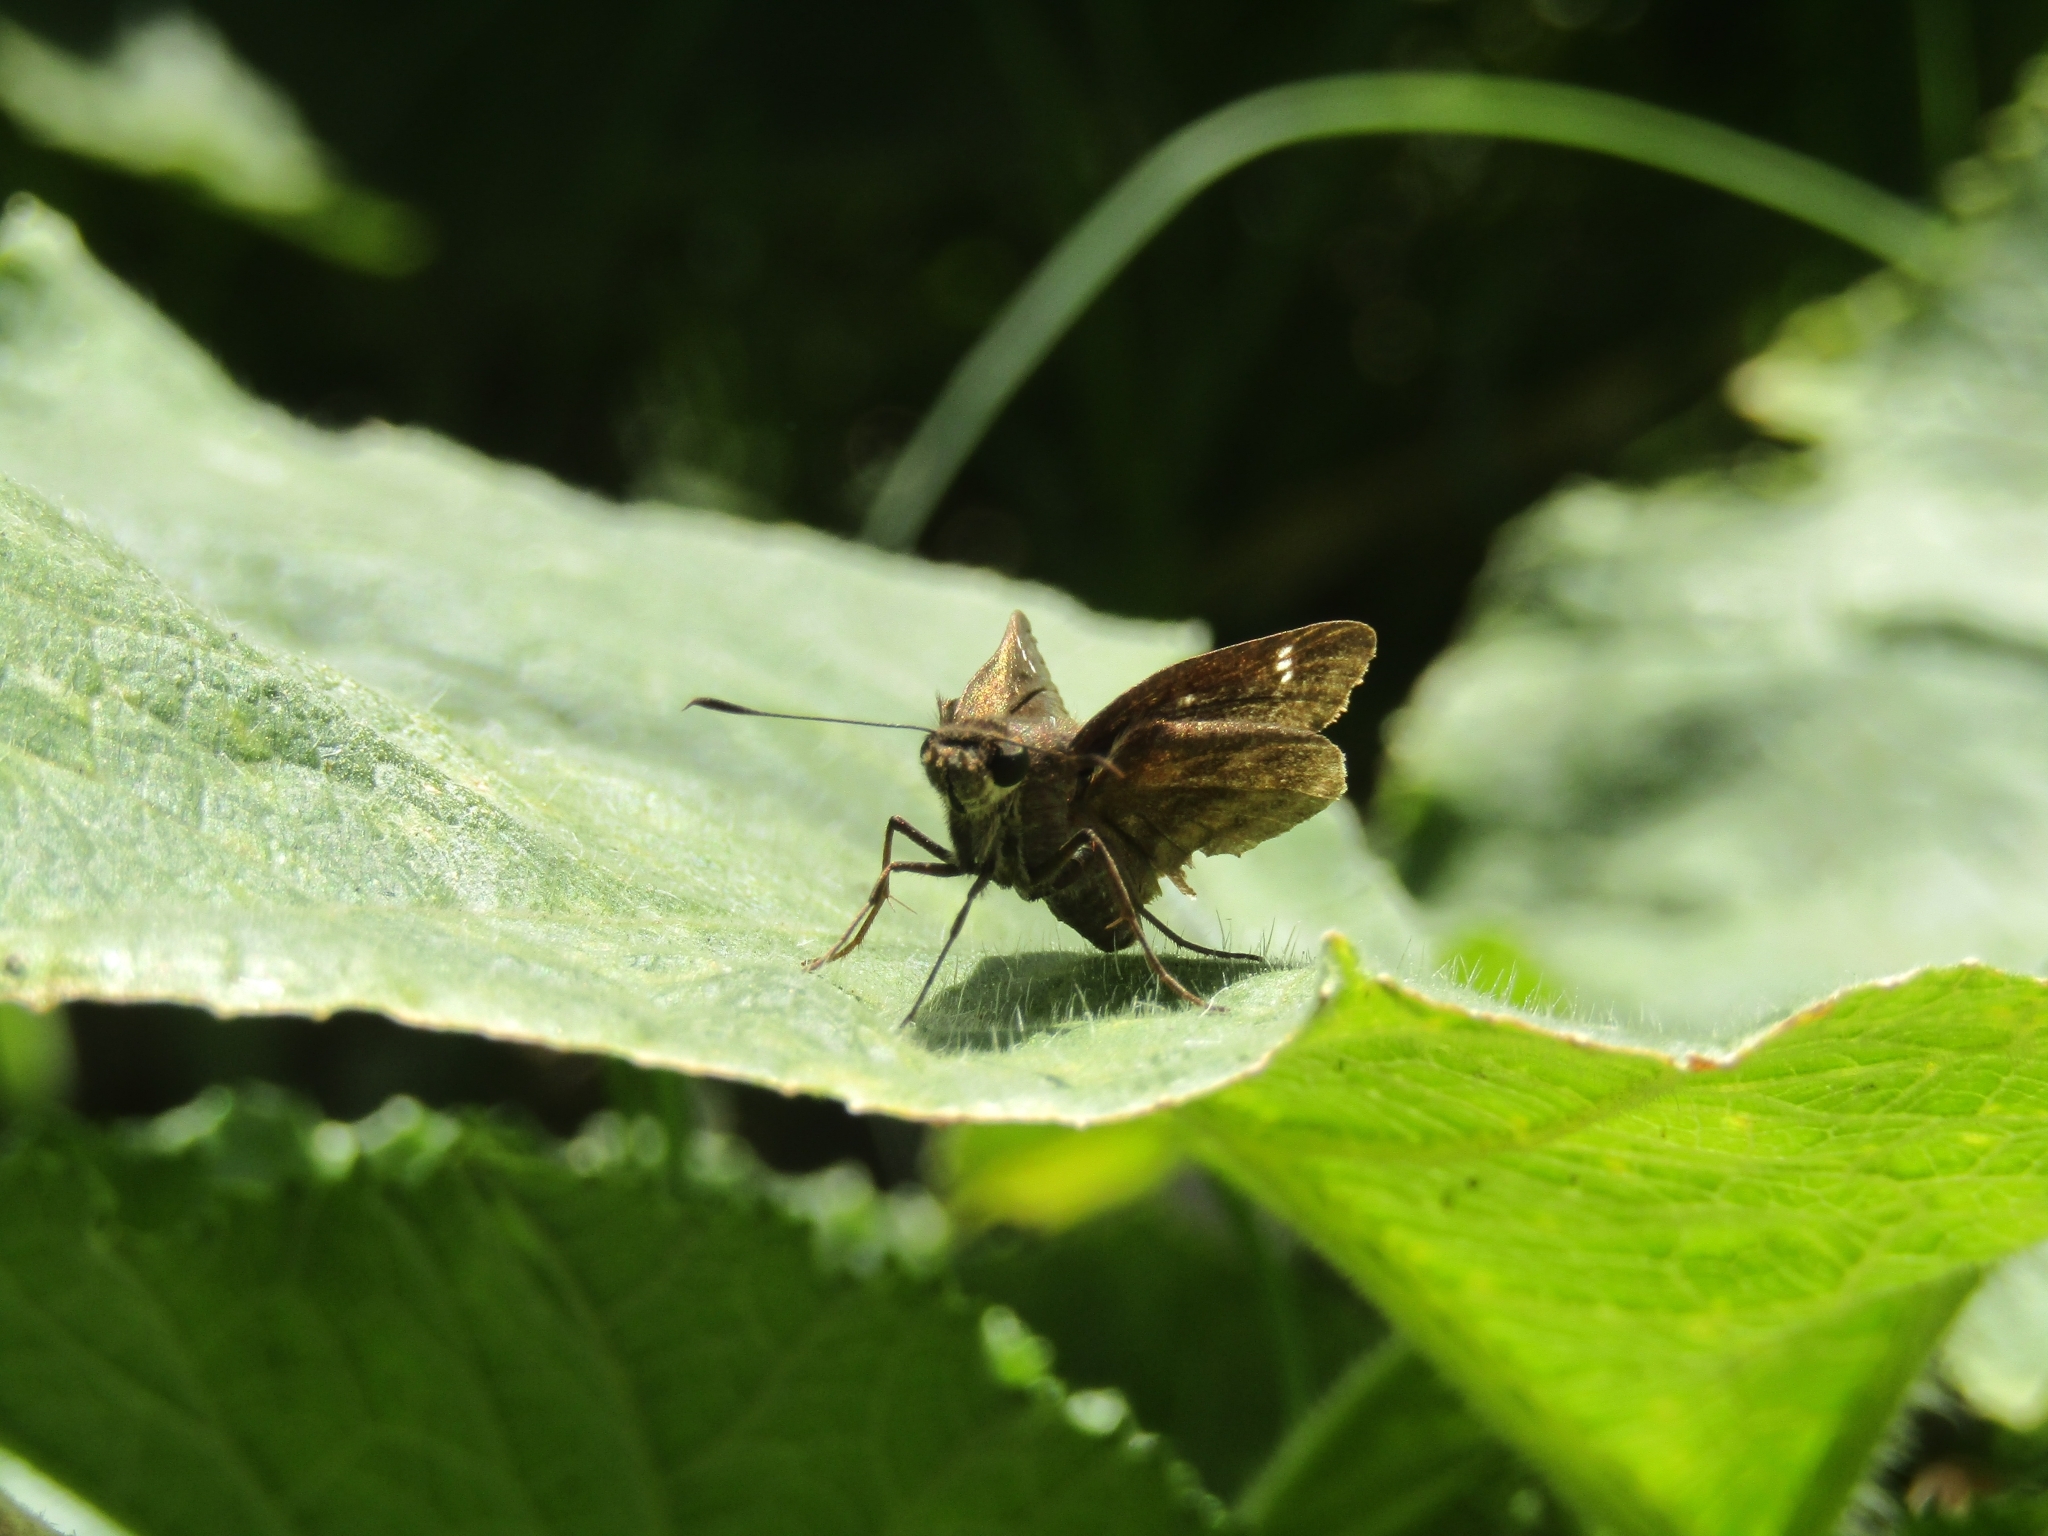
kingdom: Animalia
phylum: Arthropoda
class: Insecta
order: Lepidoptera
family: Hesperiidae
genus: Quinta
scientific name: Quinta cannae
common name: Canna skipper
